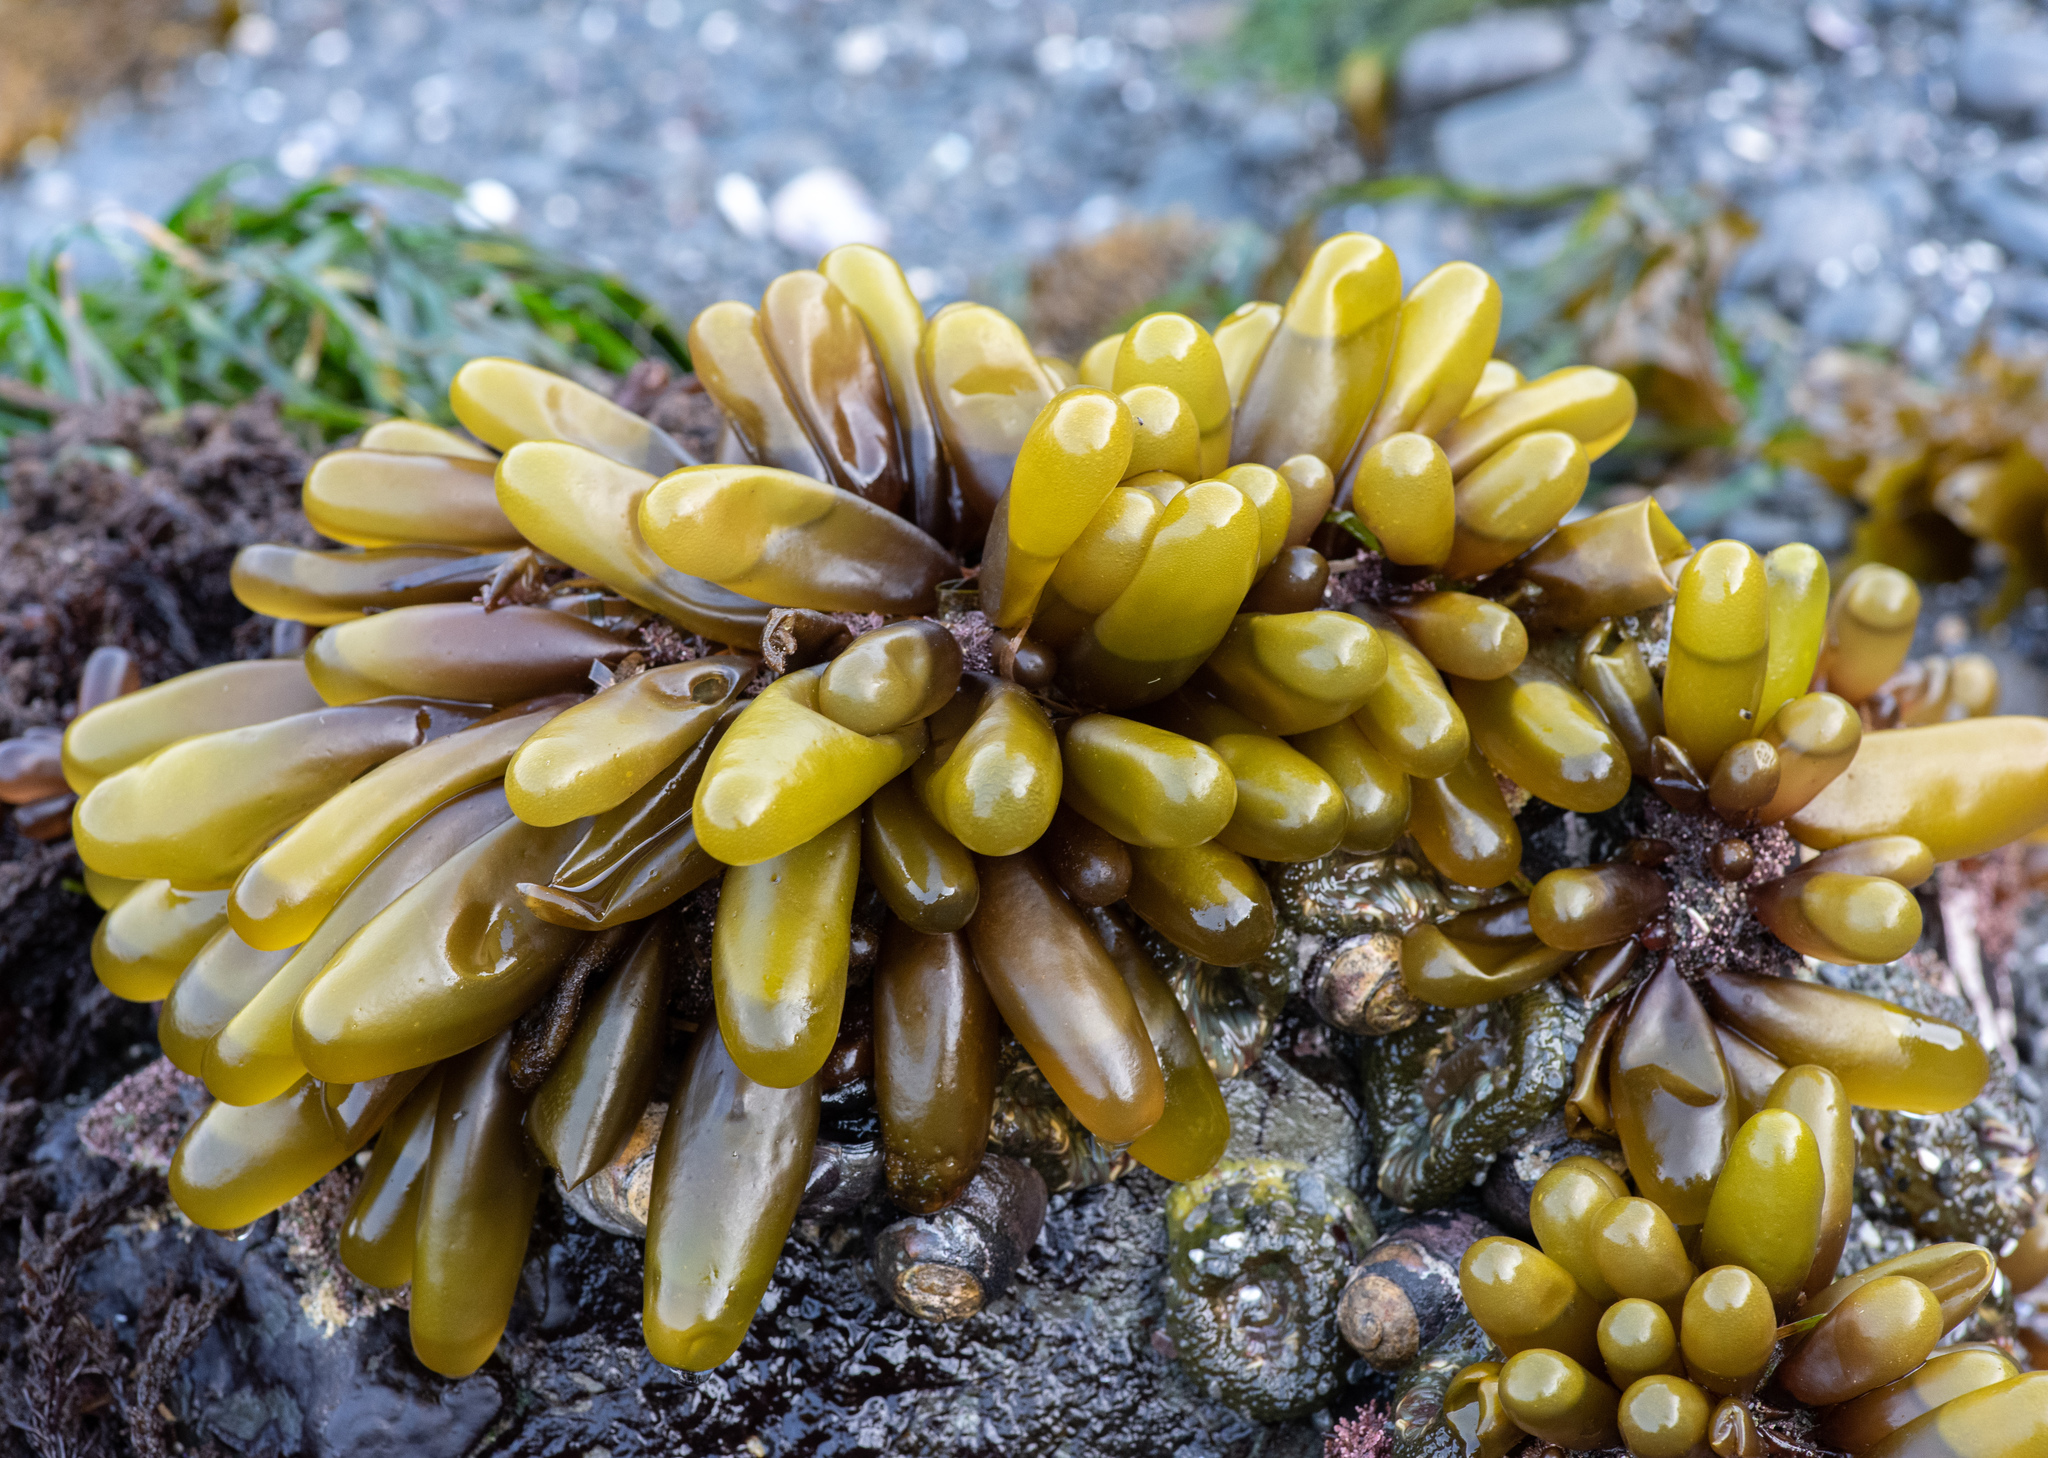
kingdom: Plantae
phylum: Rhodophyta
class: Florideophyceae
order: Palmariales
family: Palmariaceae
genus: Halosaccion
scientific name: Halosaccion glandiforme
